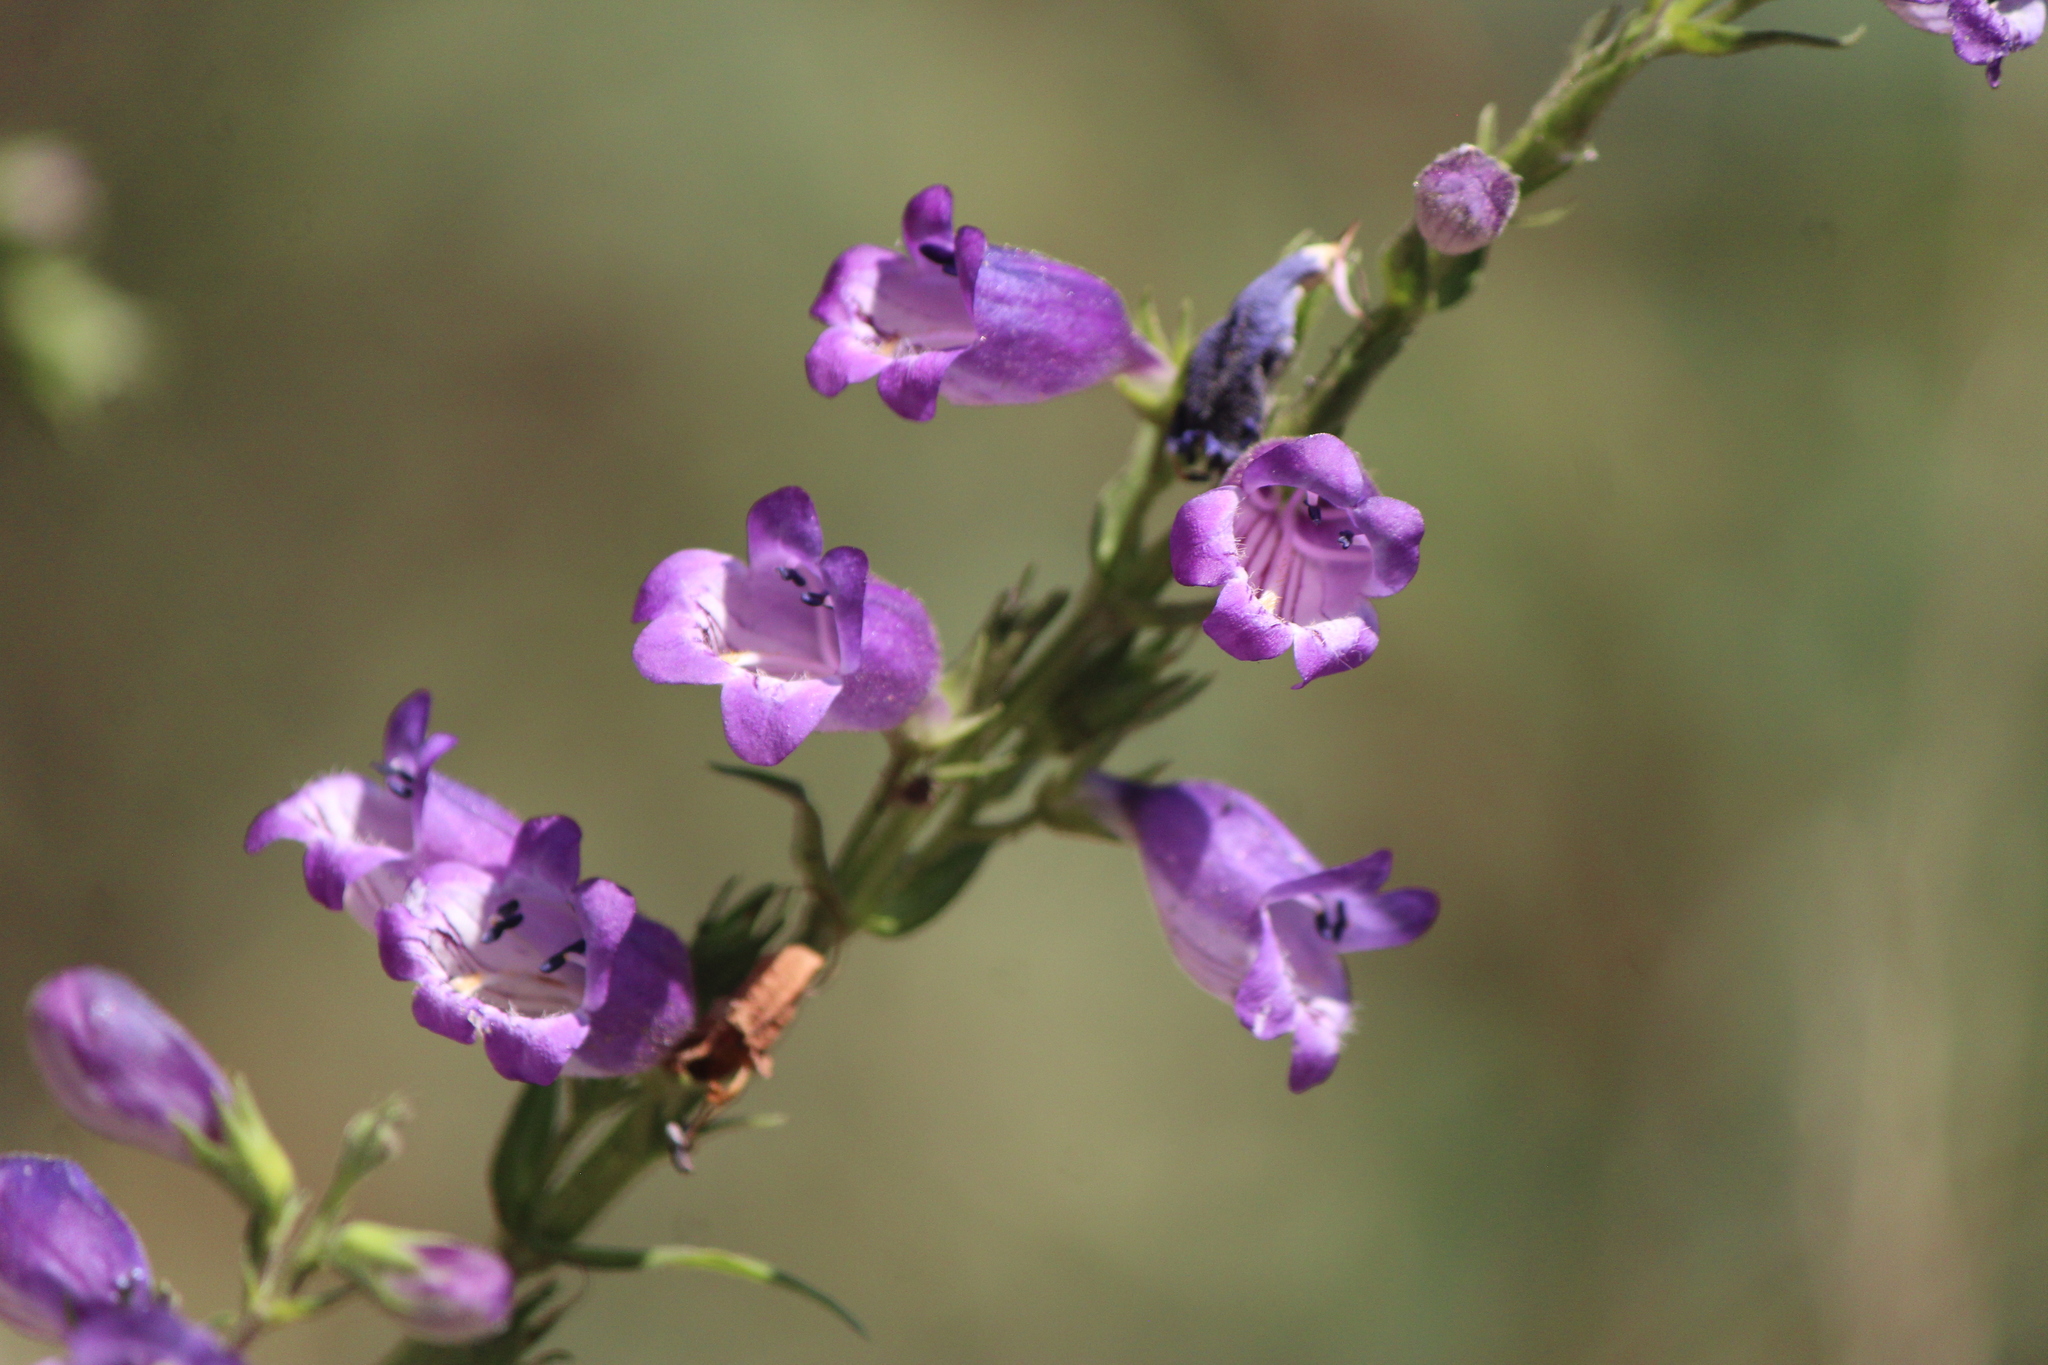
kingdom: Plantae
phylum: Tracheophyta
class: Magnoliopsida
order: Lamiales
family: Plantaginaceae
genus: Penstemon
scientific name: Penstemon campanulatus
